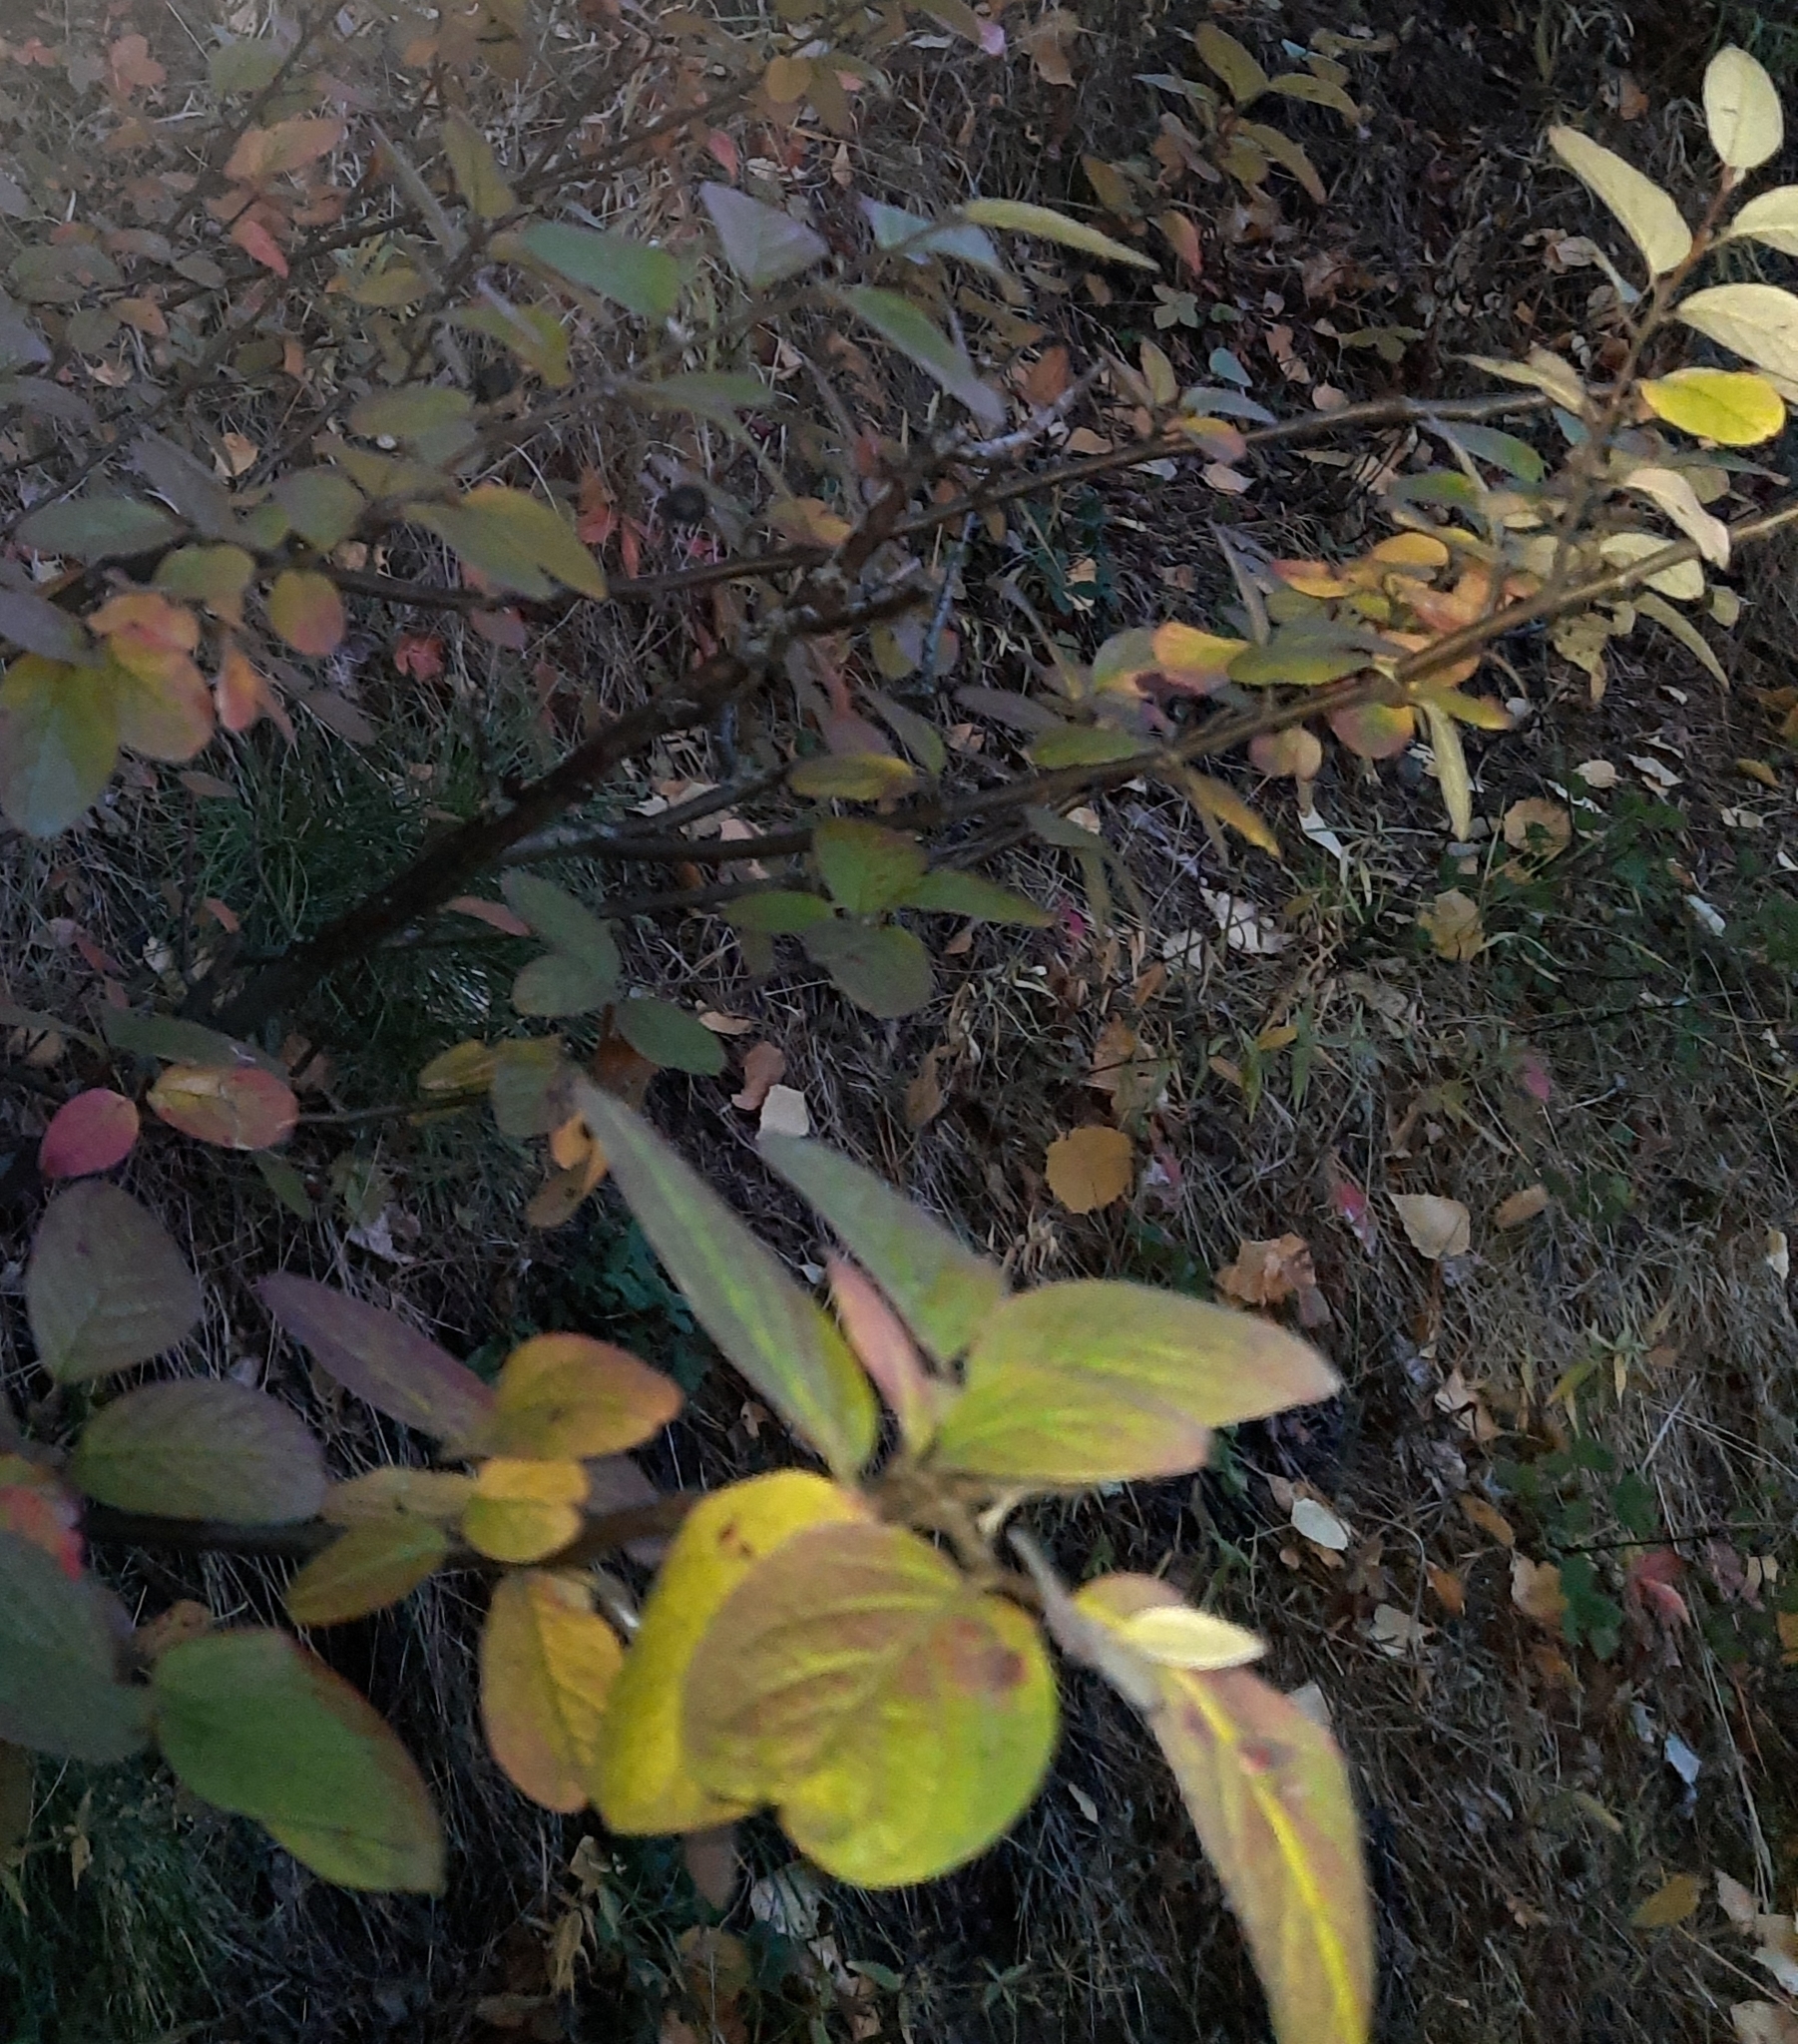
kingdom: Plantae
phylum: Tracheophyta
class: Magnoliopsida
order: Rosales
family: Rosaceae
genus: Cotoneaster
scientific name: Cotoneaster melanocarpus
